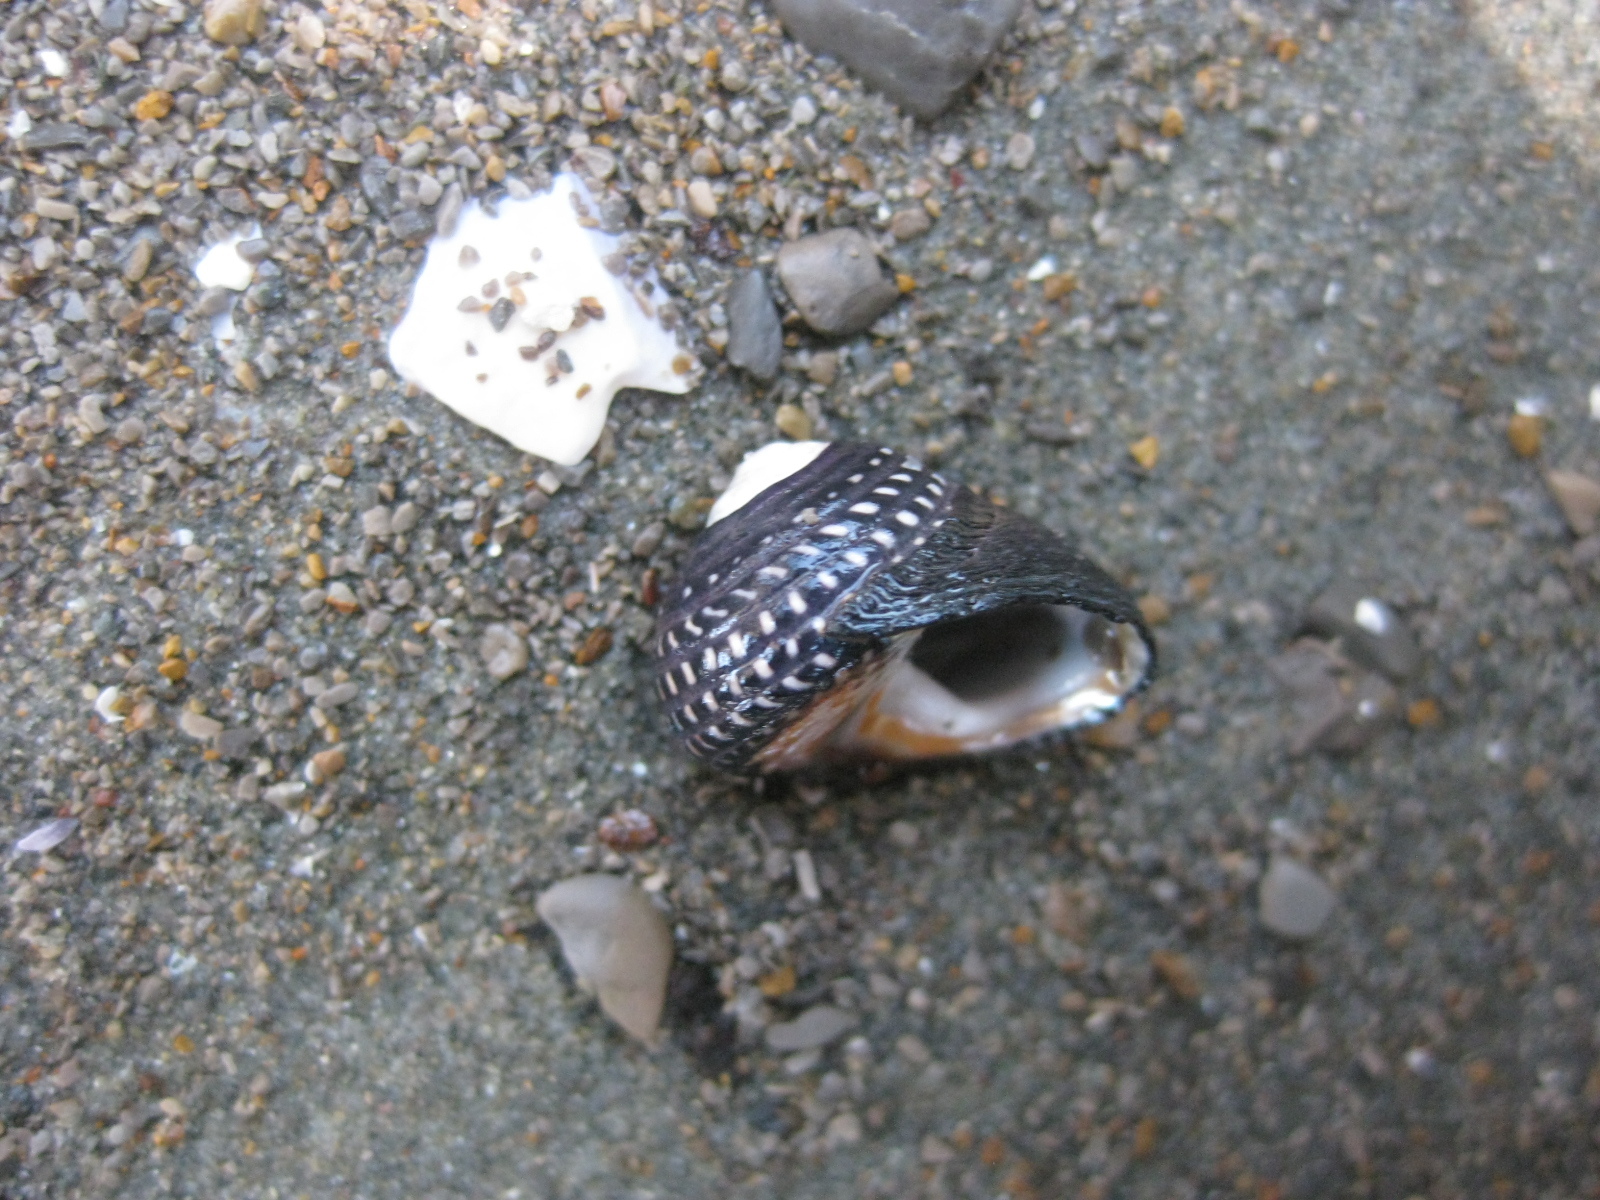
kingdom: Animalia
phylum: Mollusca
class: Gastropoda
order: Trochida
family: Trochidae
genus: Diloma
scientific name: Diloma aethiops
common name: Scorched monodont
